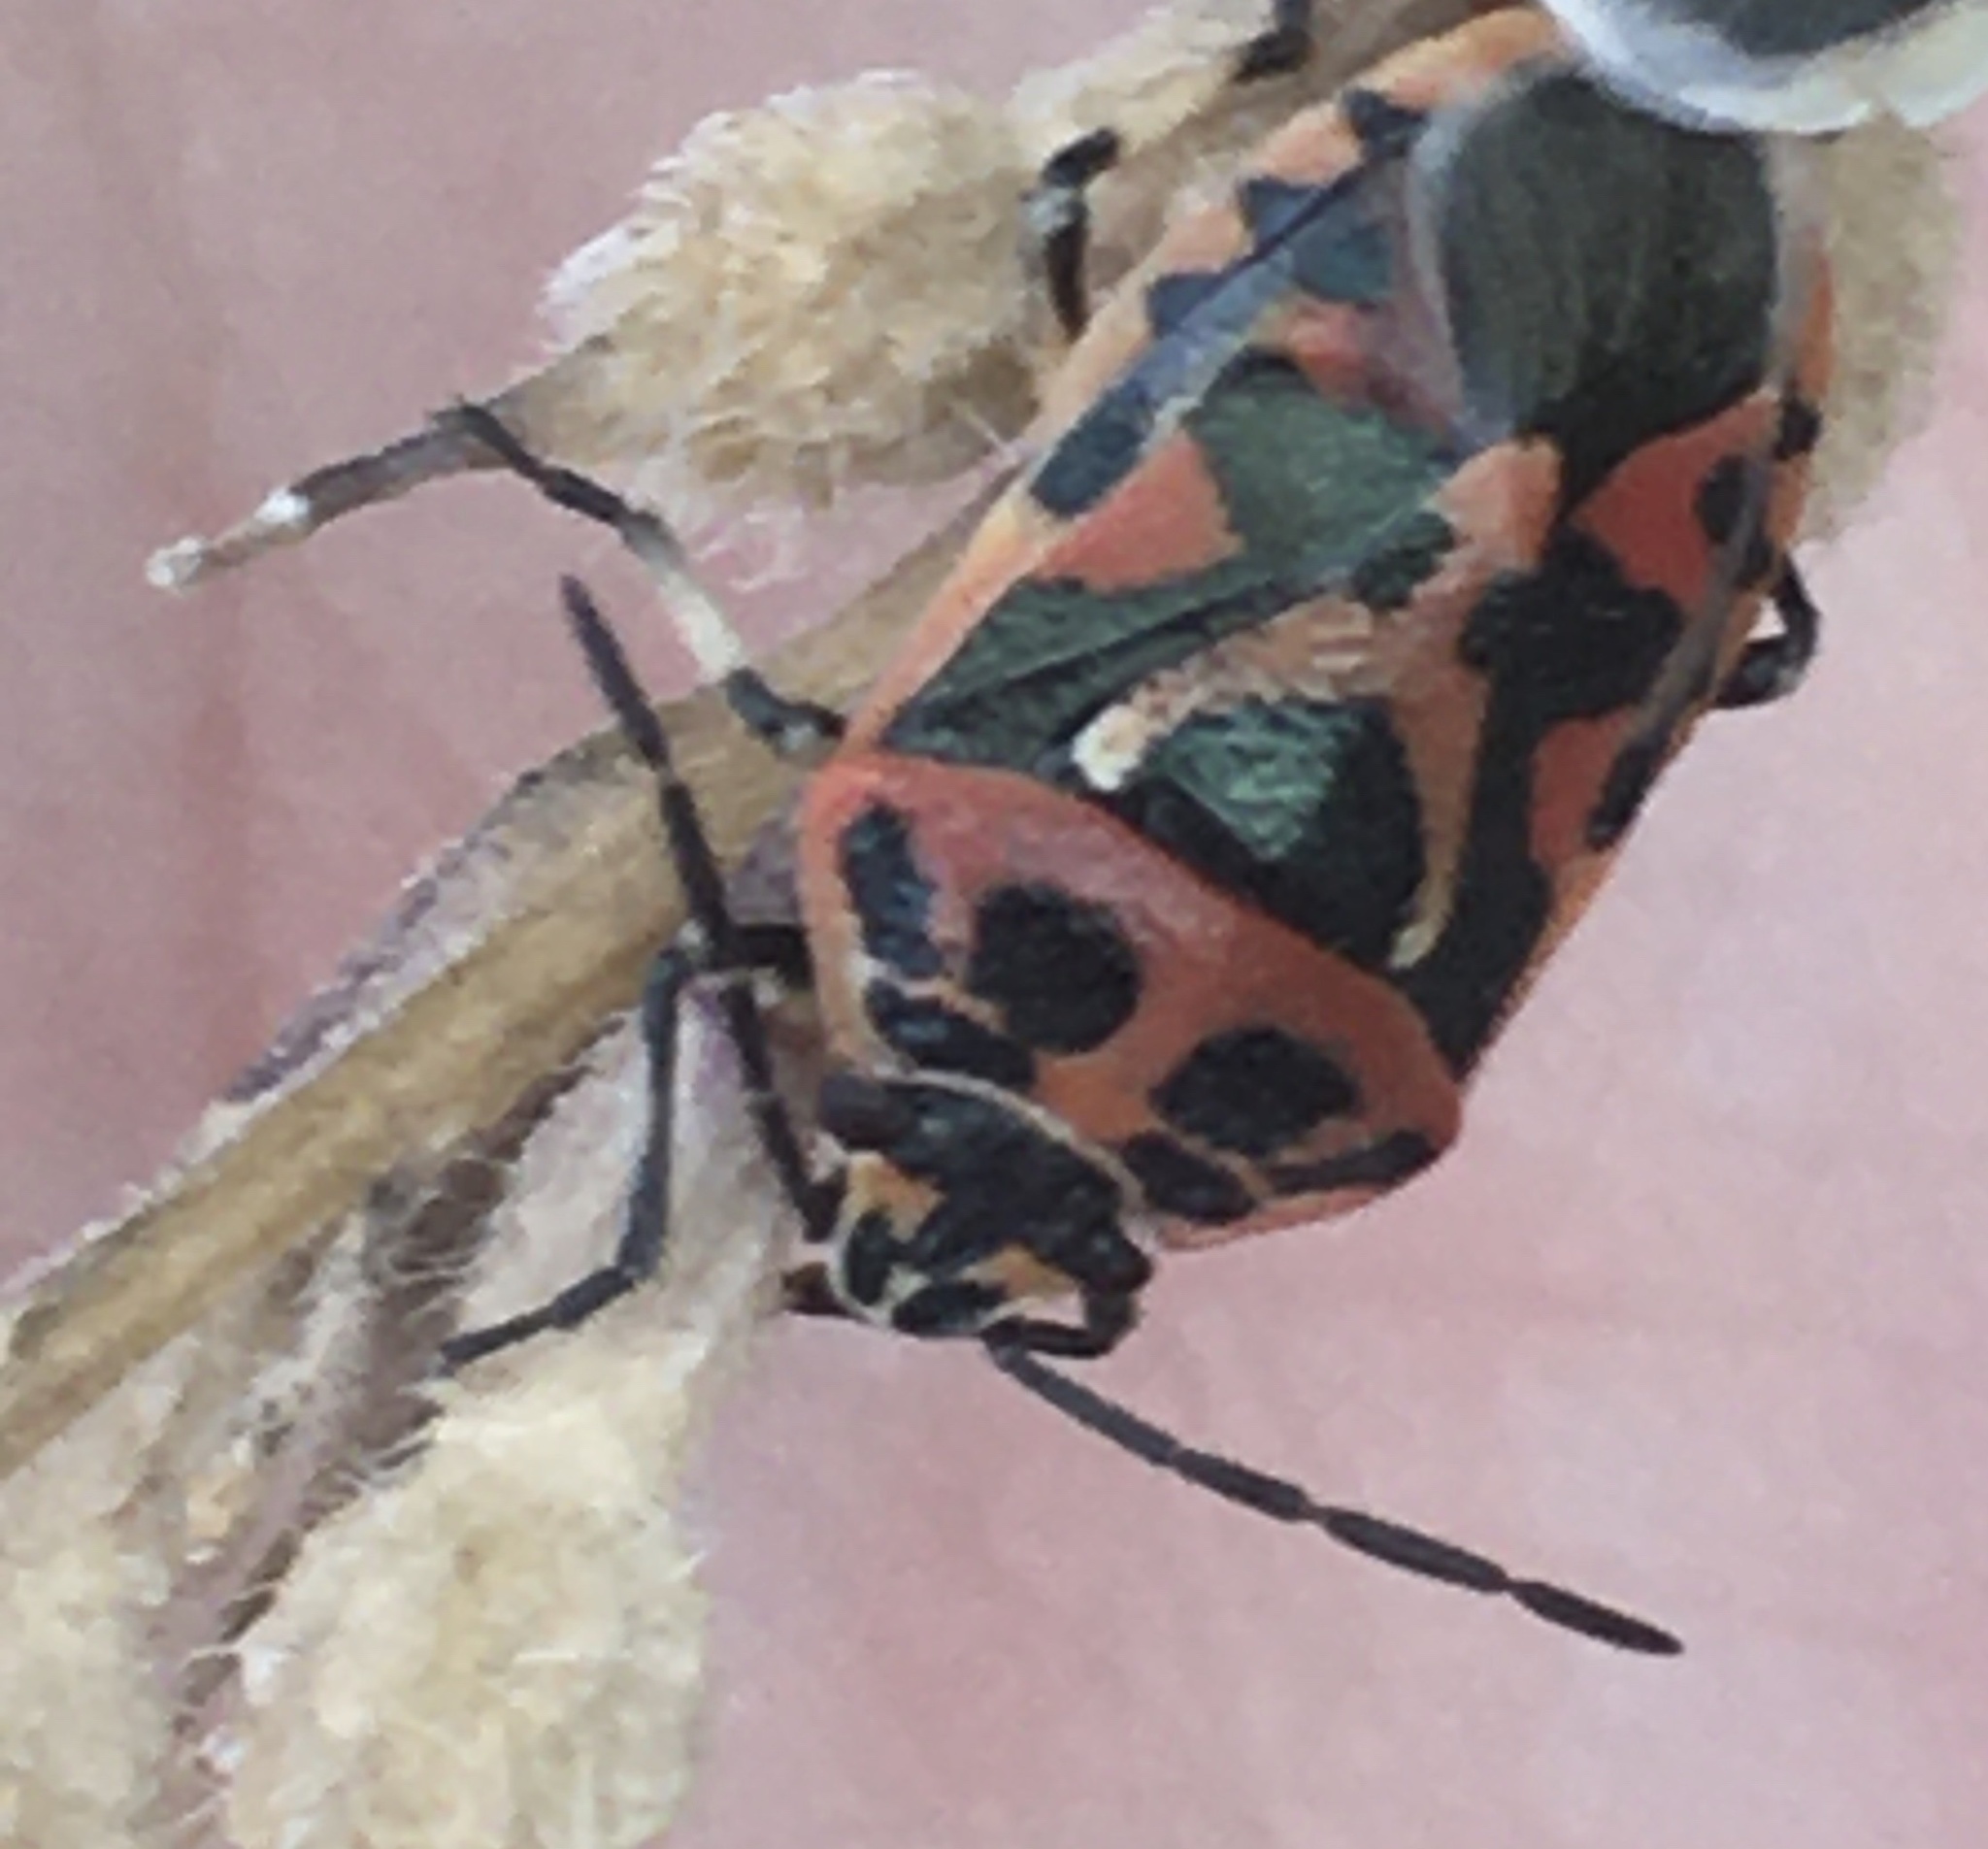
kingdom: Animalia
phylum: Arthropoda
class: Insecta
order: Hemiptera
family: Pentatomidae
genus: Eurydema
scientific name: Eurydema ornata
